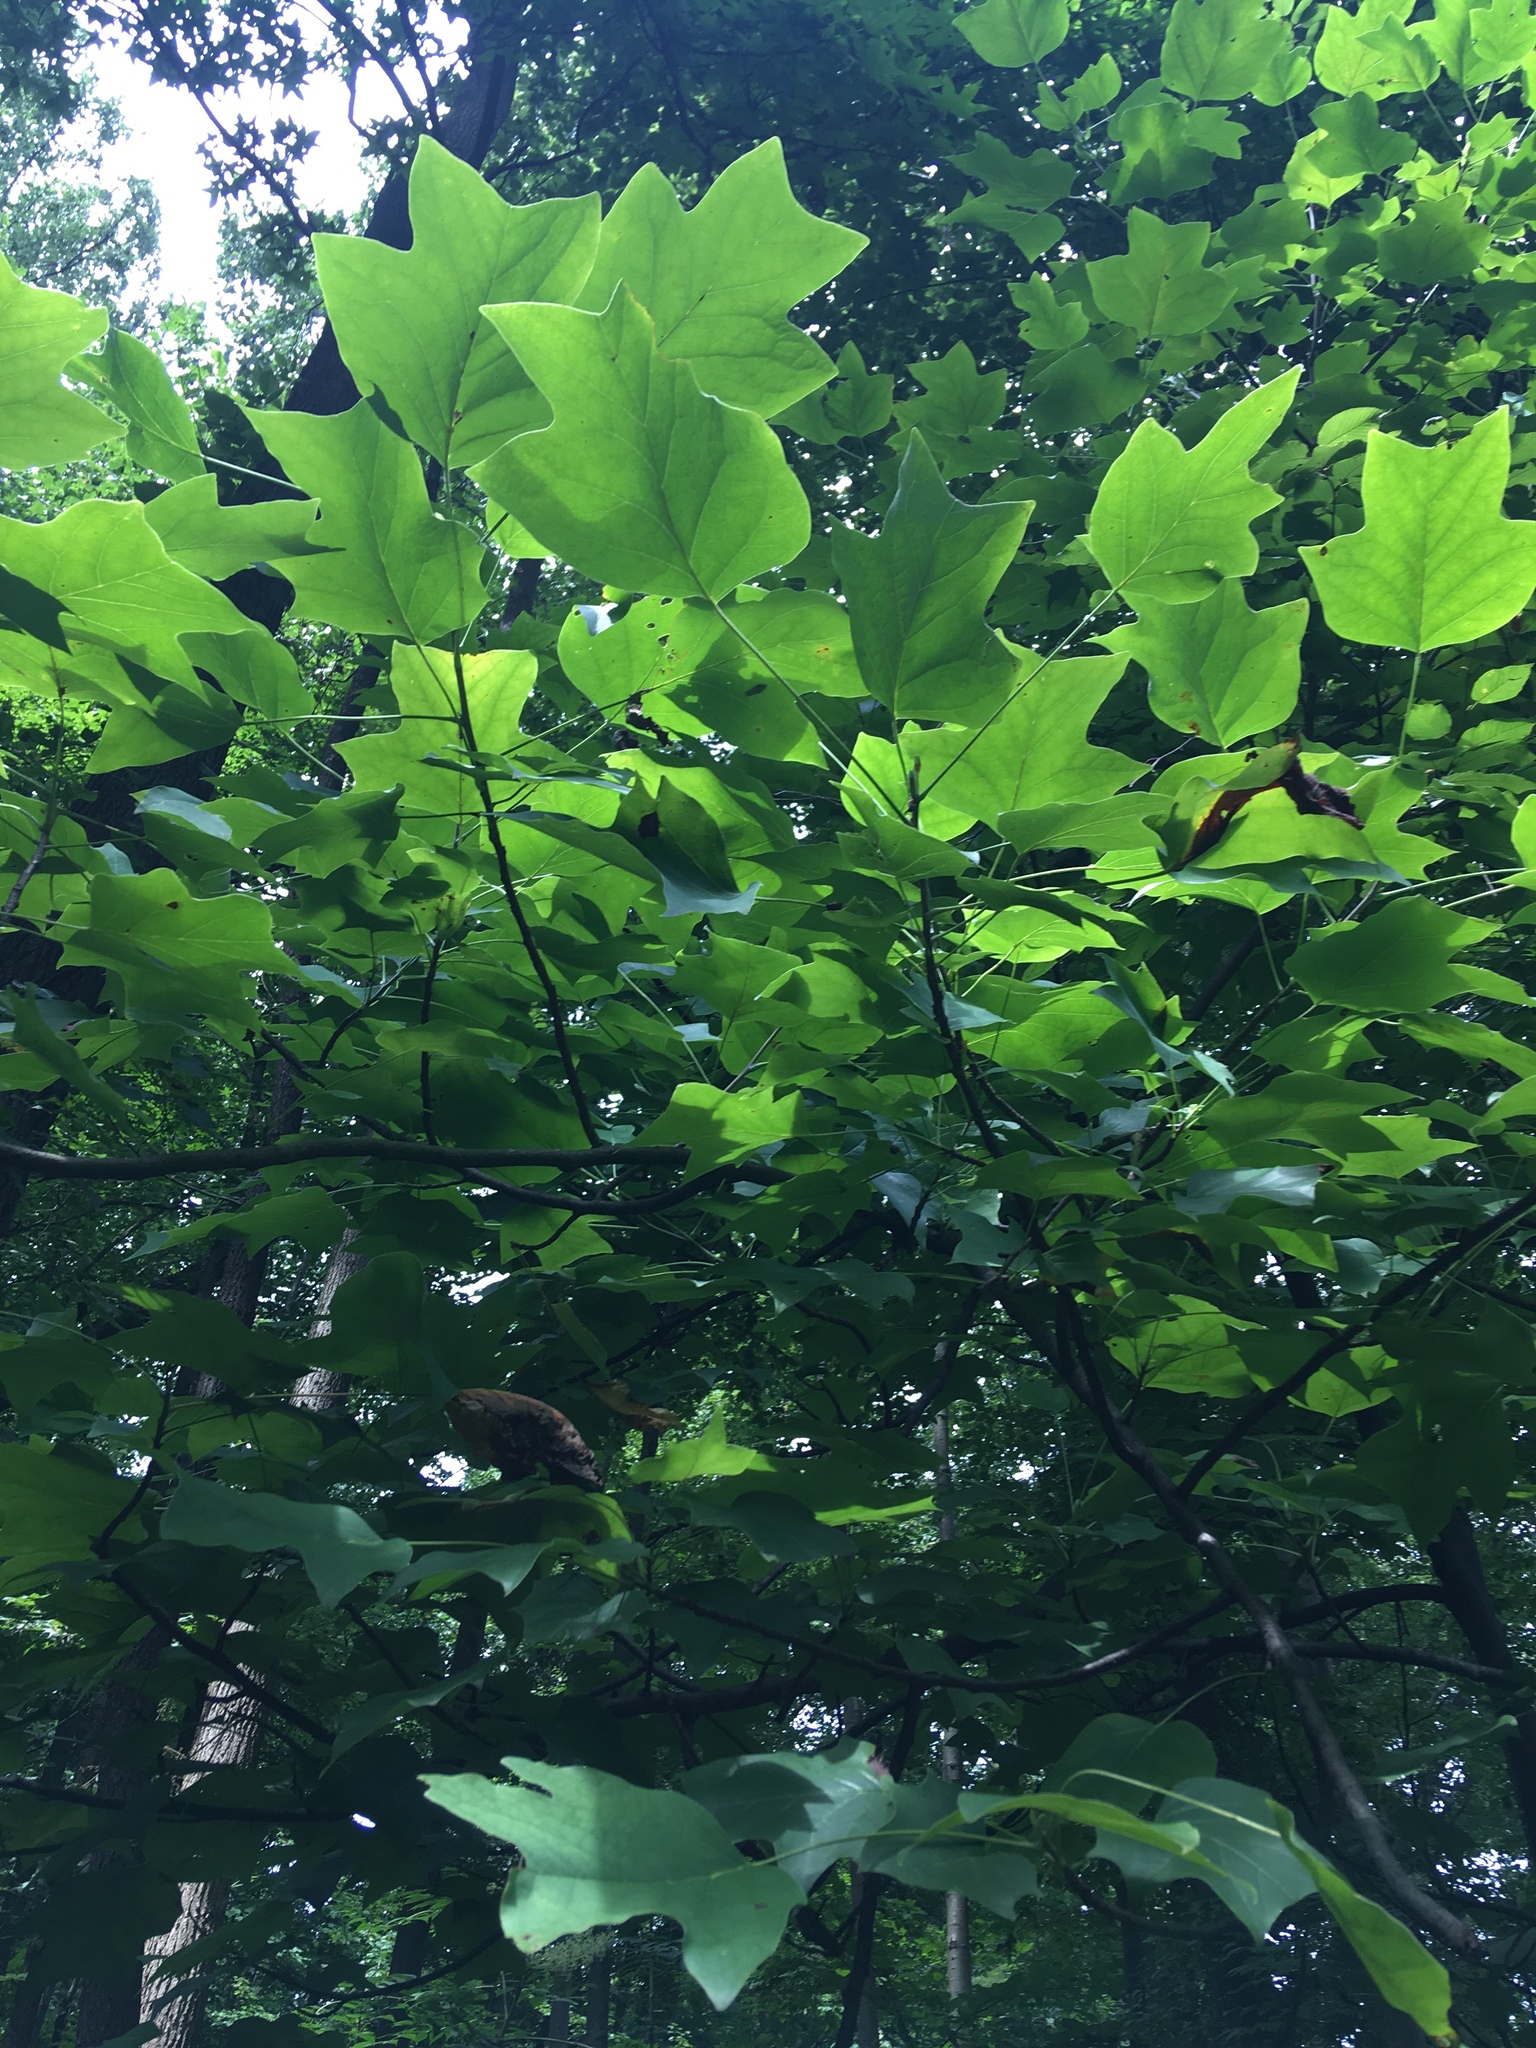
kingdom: Plantae
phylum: Tracheophyta
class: Magnoliopsida
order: Magnoliales
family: Magnoliaceae
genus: Liriodendron
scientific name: Liriodendron tulipifera
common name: Tulip tree
